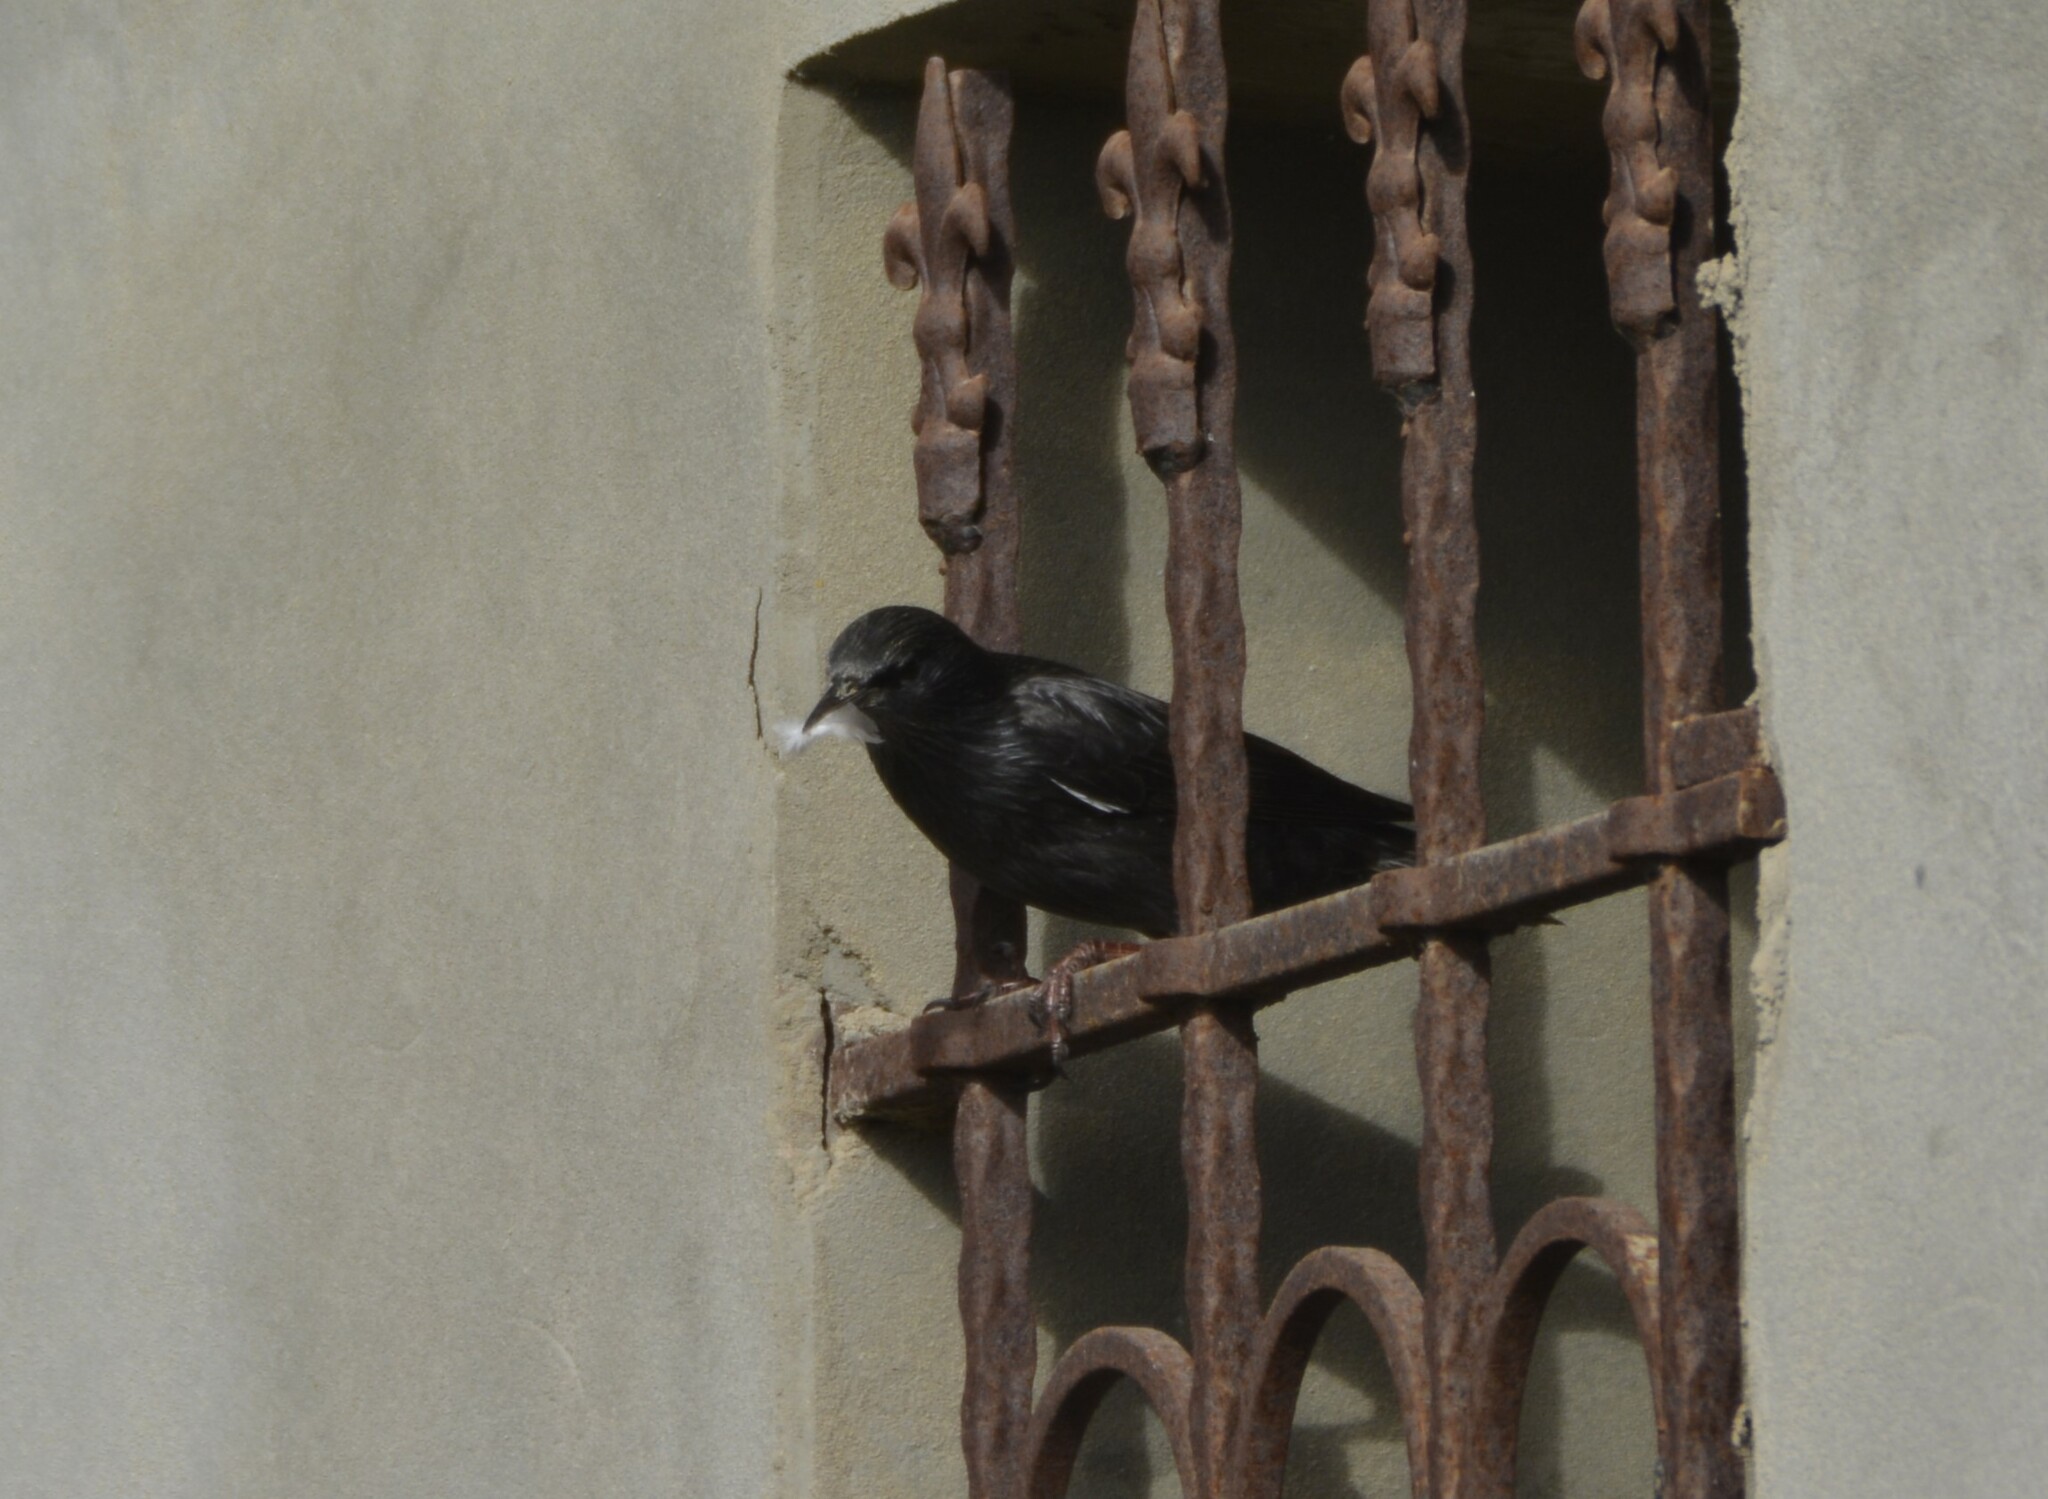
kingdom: Animalia
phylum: Chordata
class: Aves
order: Passeriformes
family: Sturnidae
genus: Sturnus
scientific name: Sturnus unicolor
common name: Spotless starling
